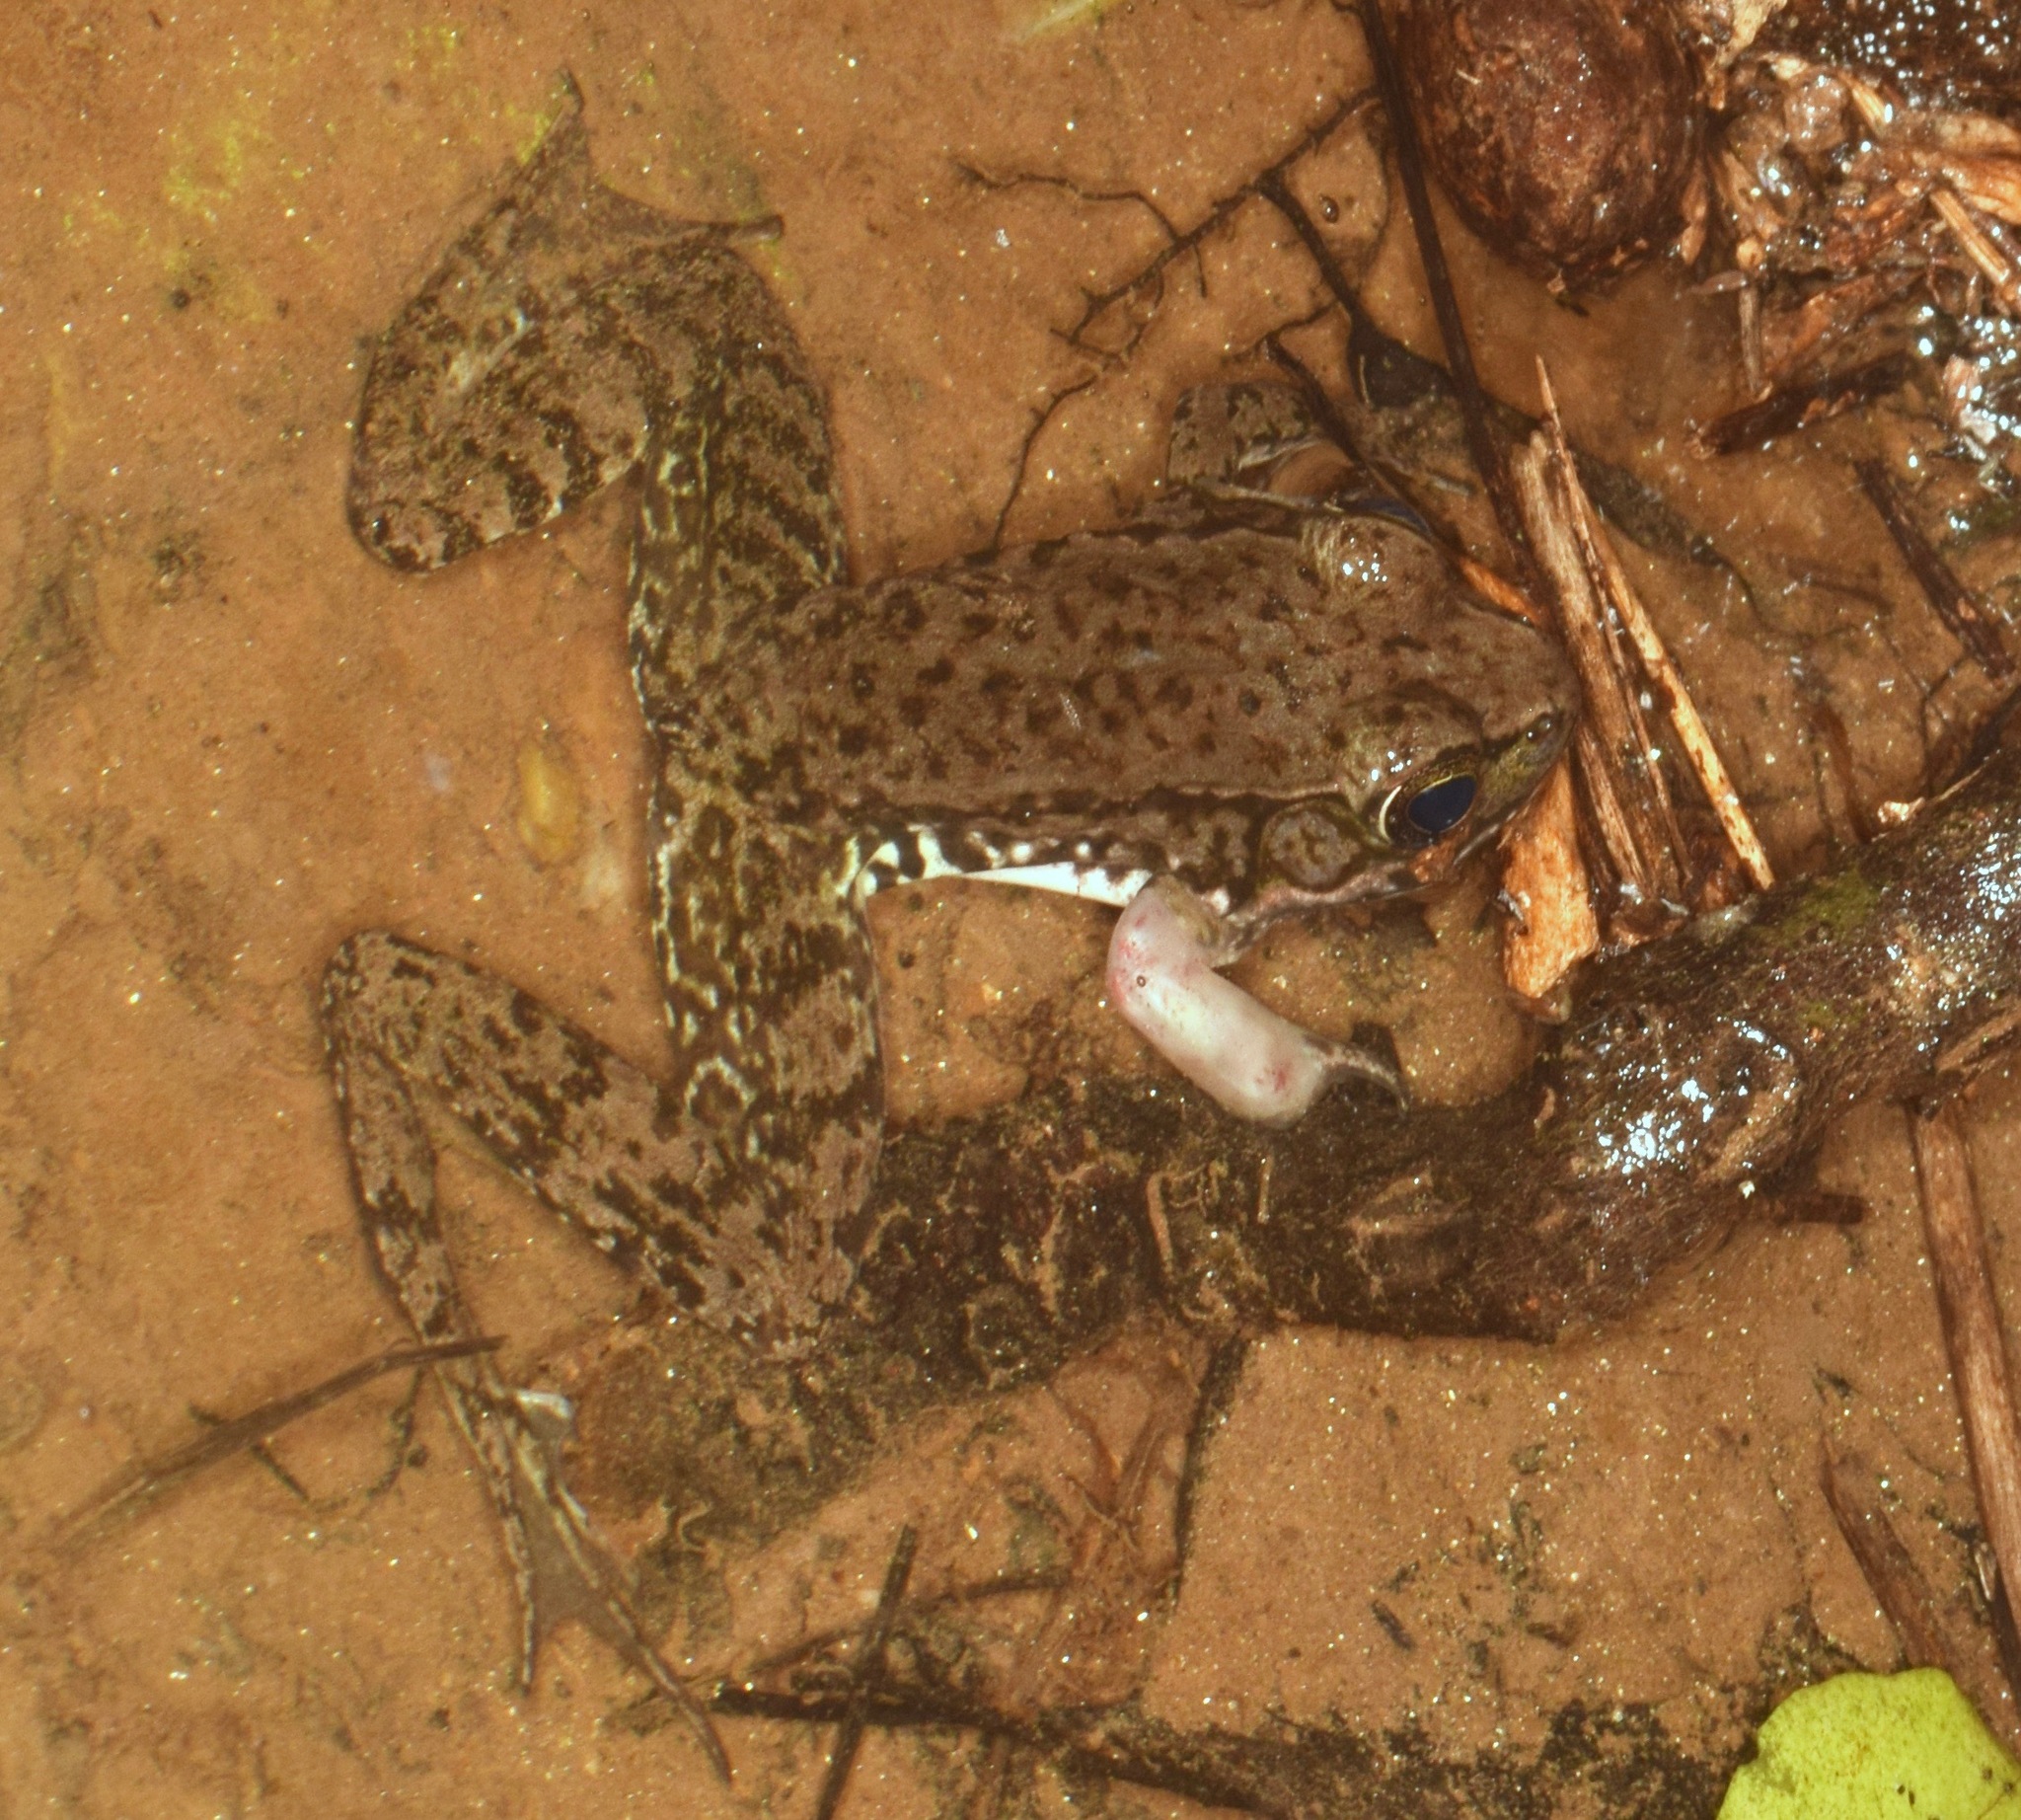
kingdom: Animalia
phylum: Chordata
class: Amphibia
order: Anura
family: Ranidae
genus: Lithobates
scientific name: Lithobates clamitans
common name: Green frog
